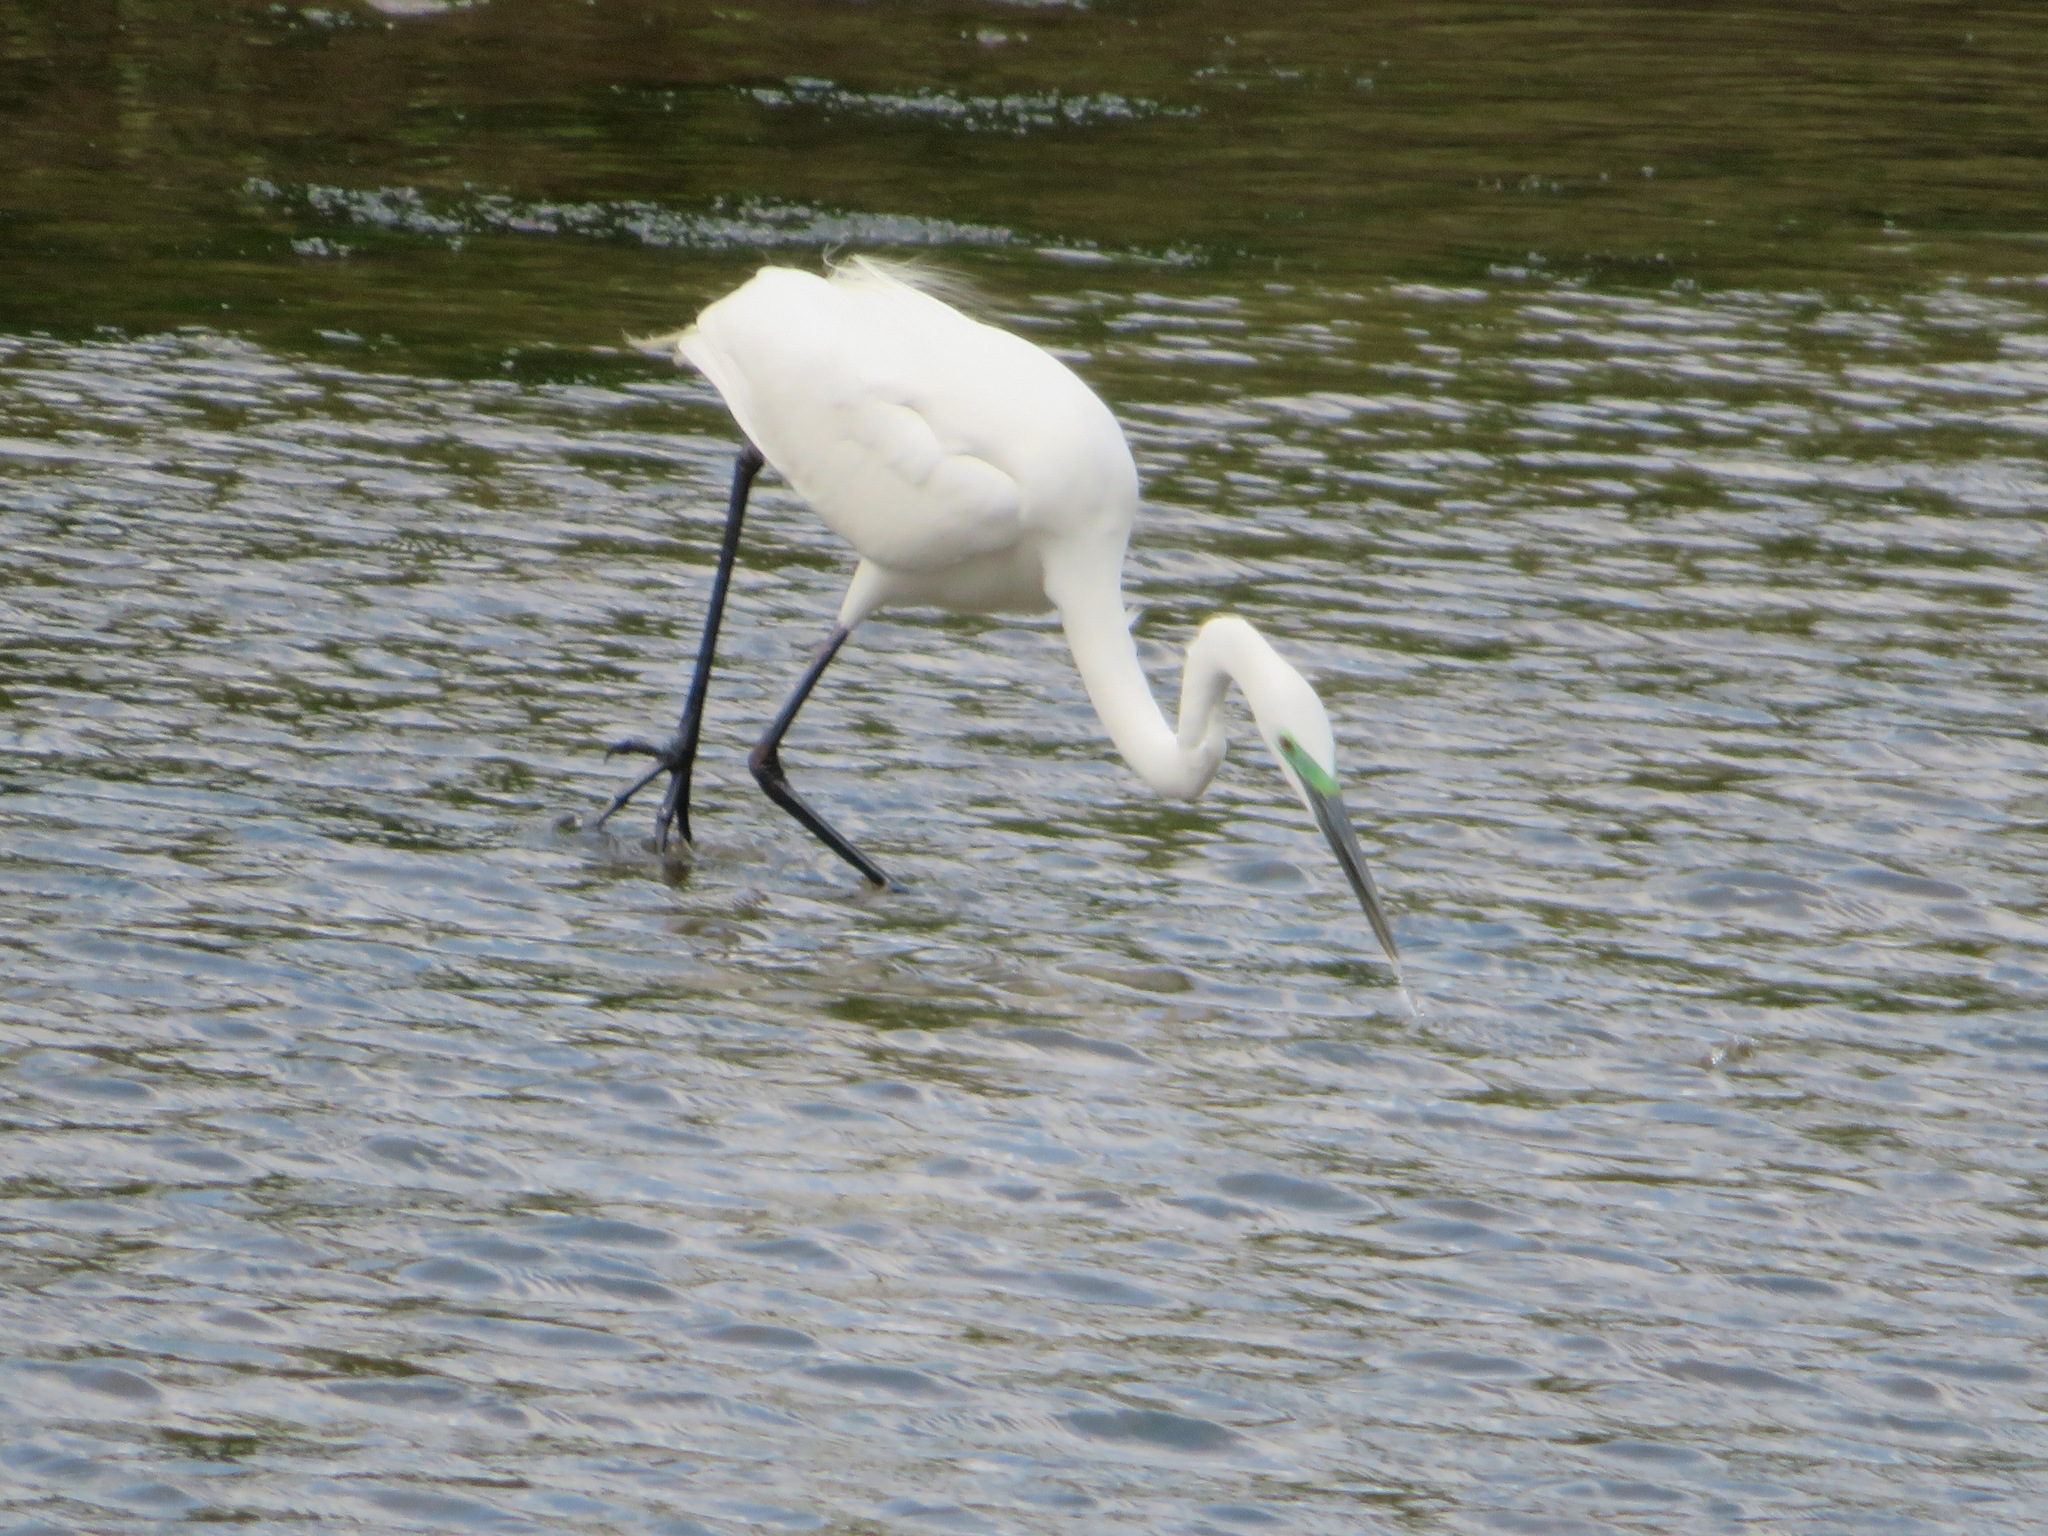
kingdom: Animalia
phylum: Chordata
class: Aves
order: Pelecaniformes
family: Ardeidae
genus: Ardea
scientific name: Ardea alba
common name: Great egret
